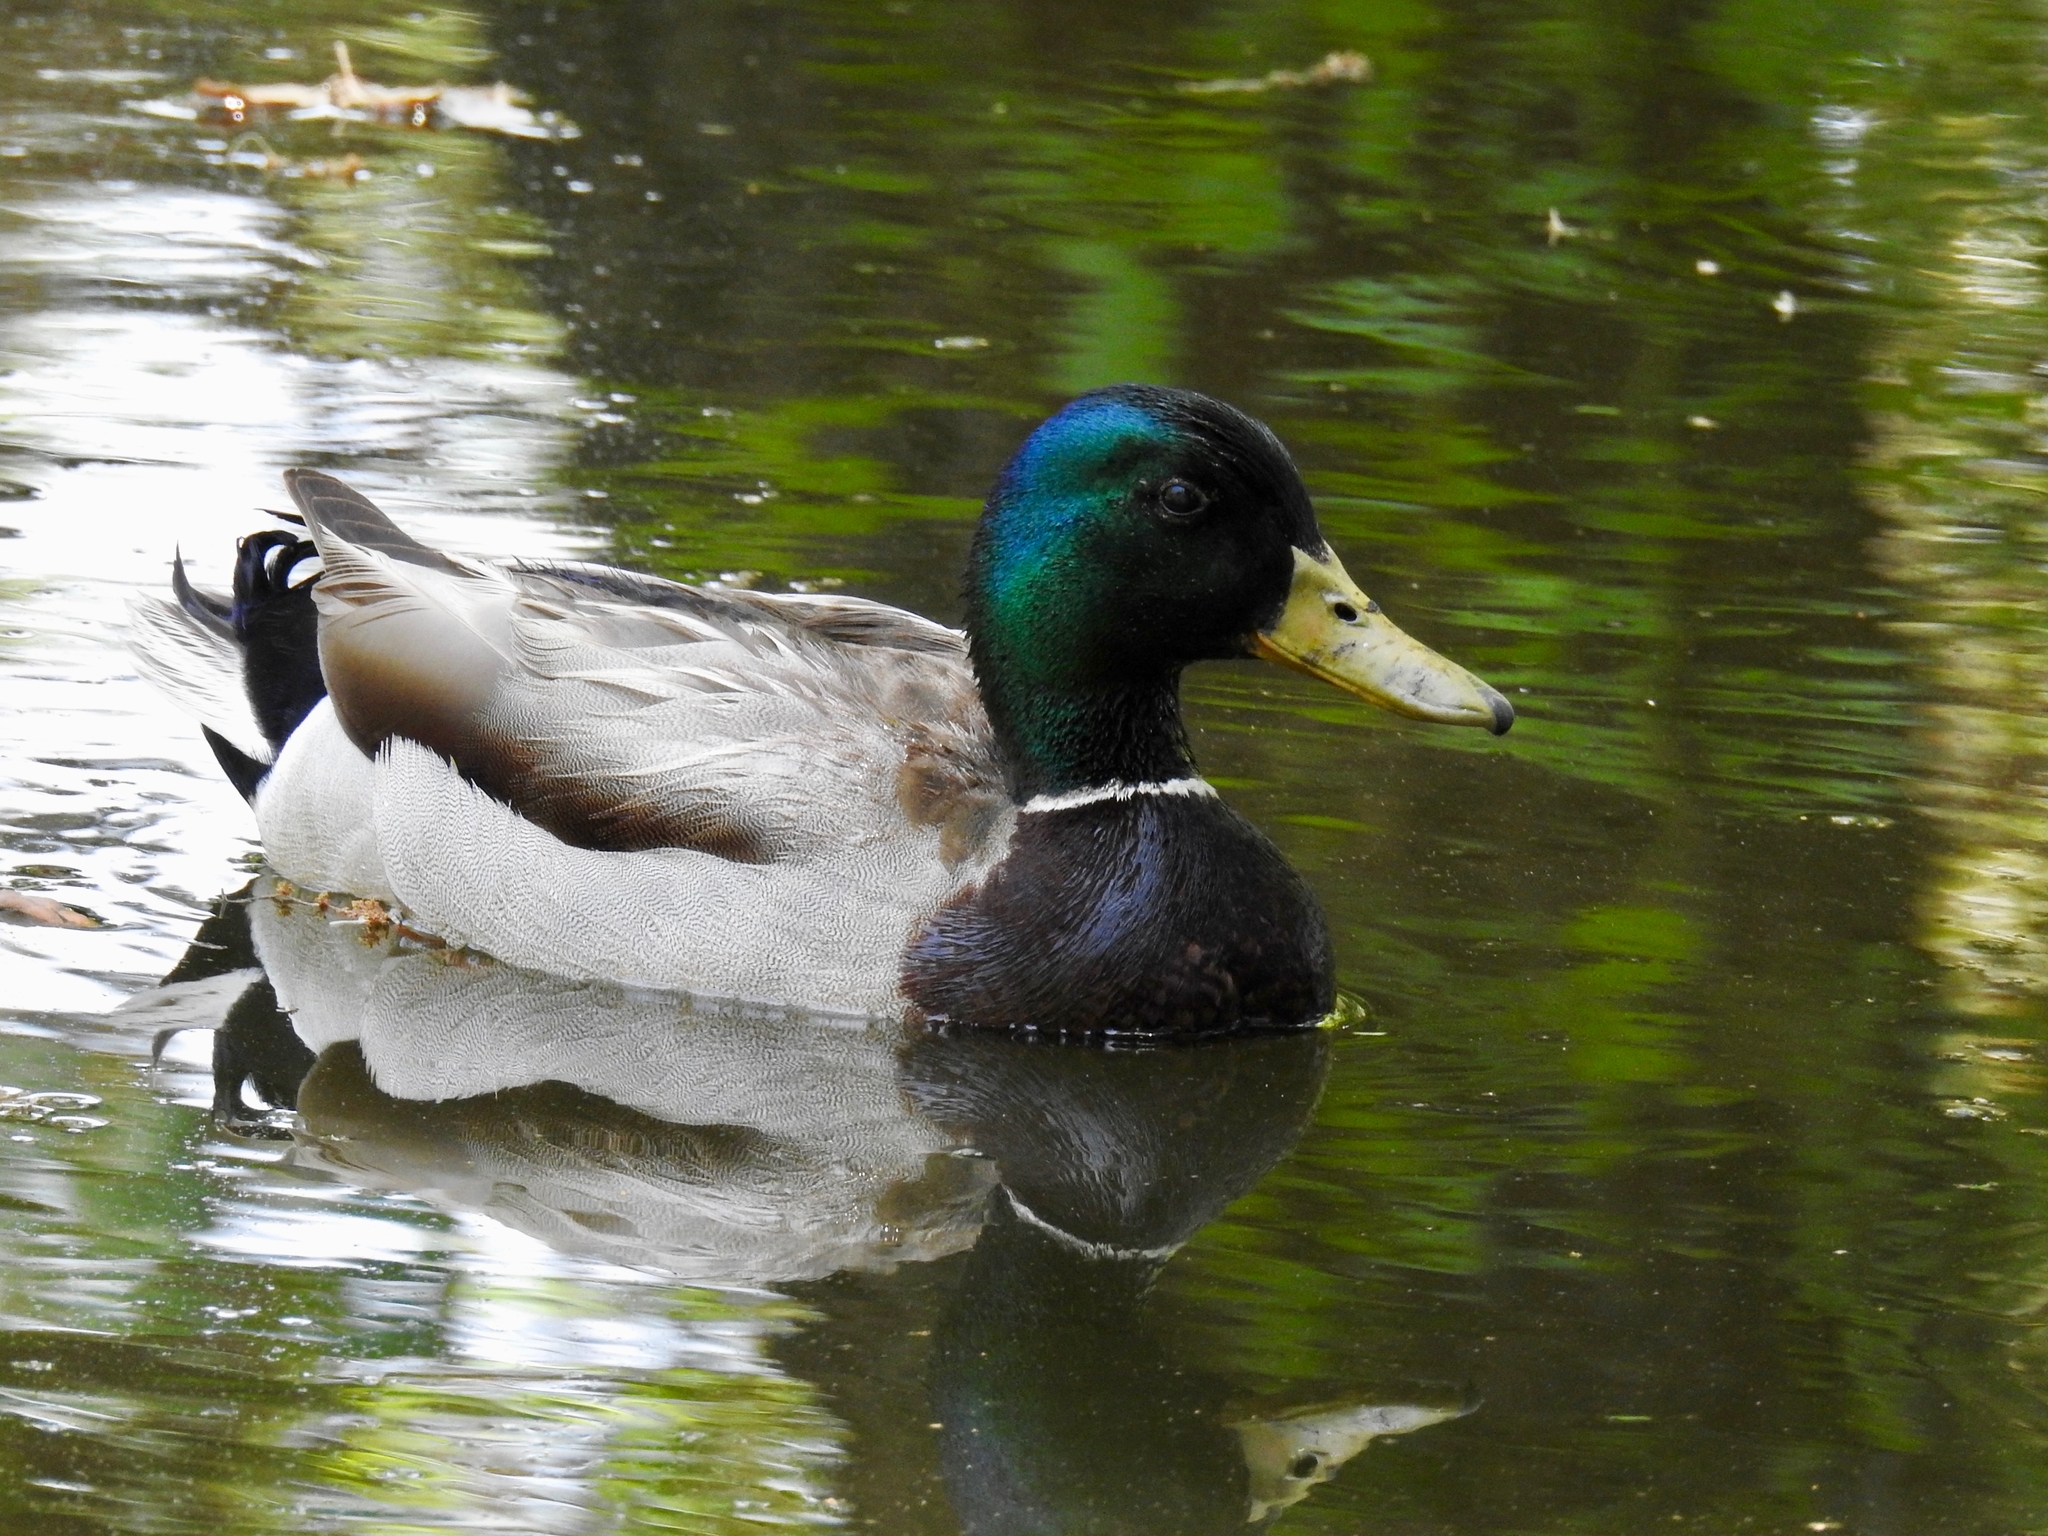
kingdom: Animalia
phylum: Chordata
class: Aves
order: Anseriformes
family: Anatidae
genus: Anas
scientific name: Anas platyrhynchos
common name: Mallard
